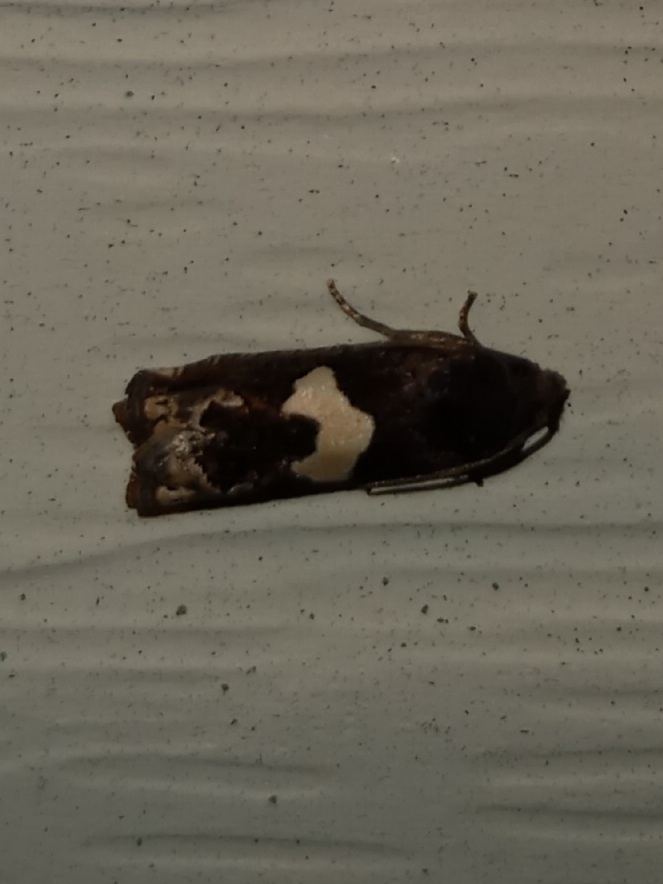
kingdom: Animalia
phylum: Arthropoda
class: Insecta
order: Lepidoptera
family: Tortricidae
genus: Epiblema
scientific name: Epiblema otiosana
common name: Bidens borer moth
